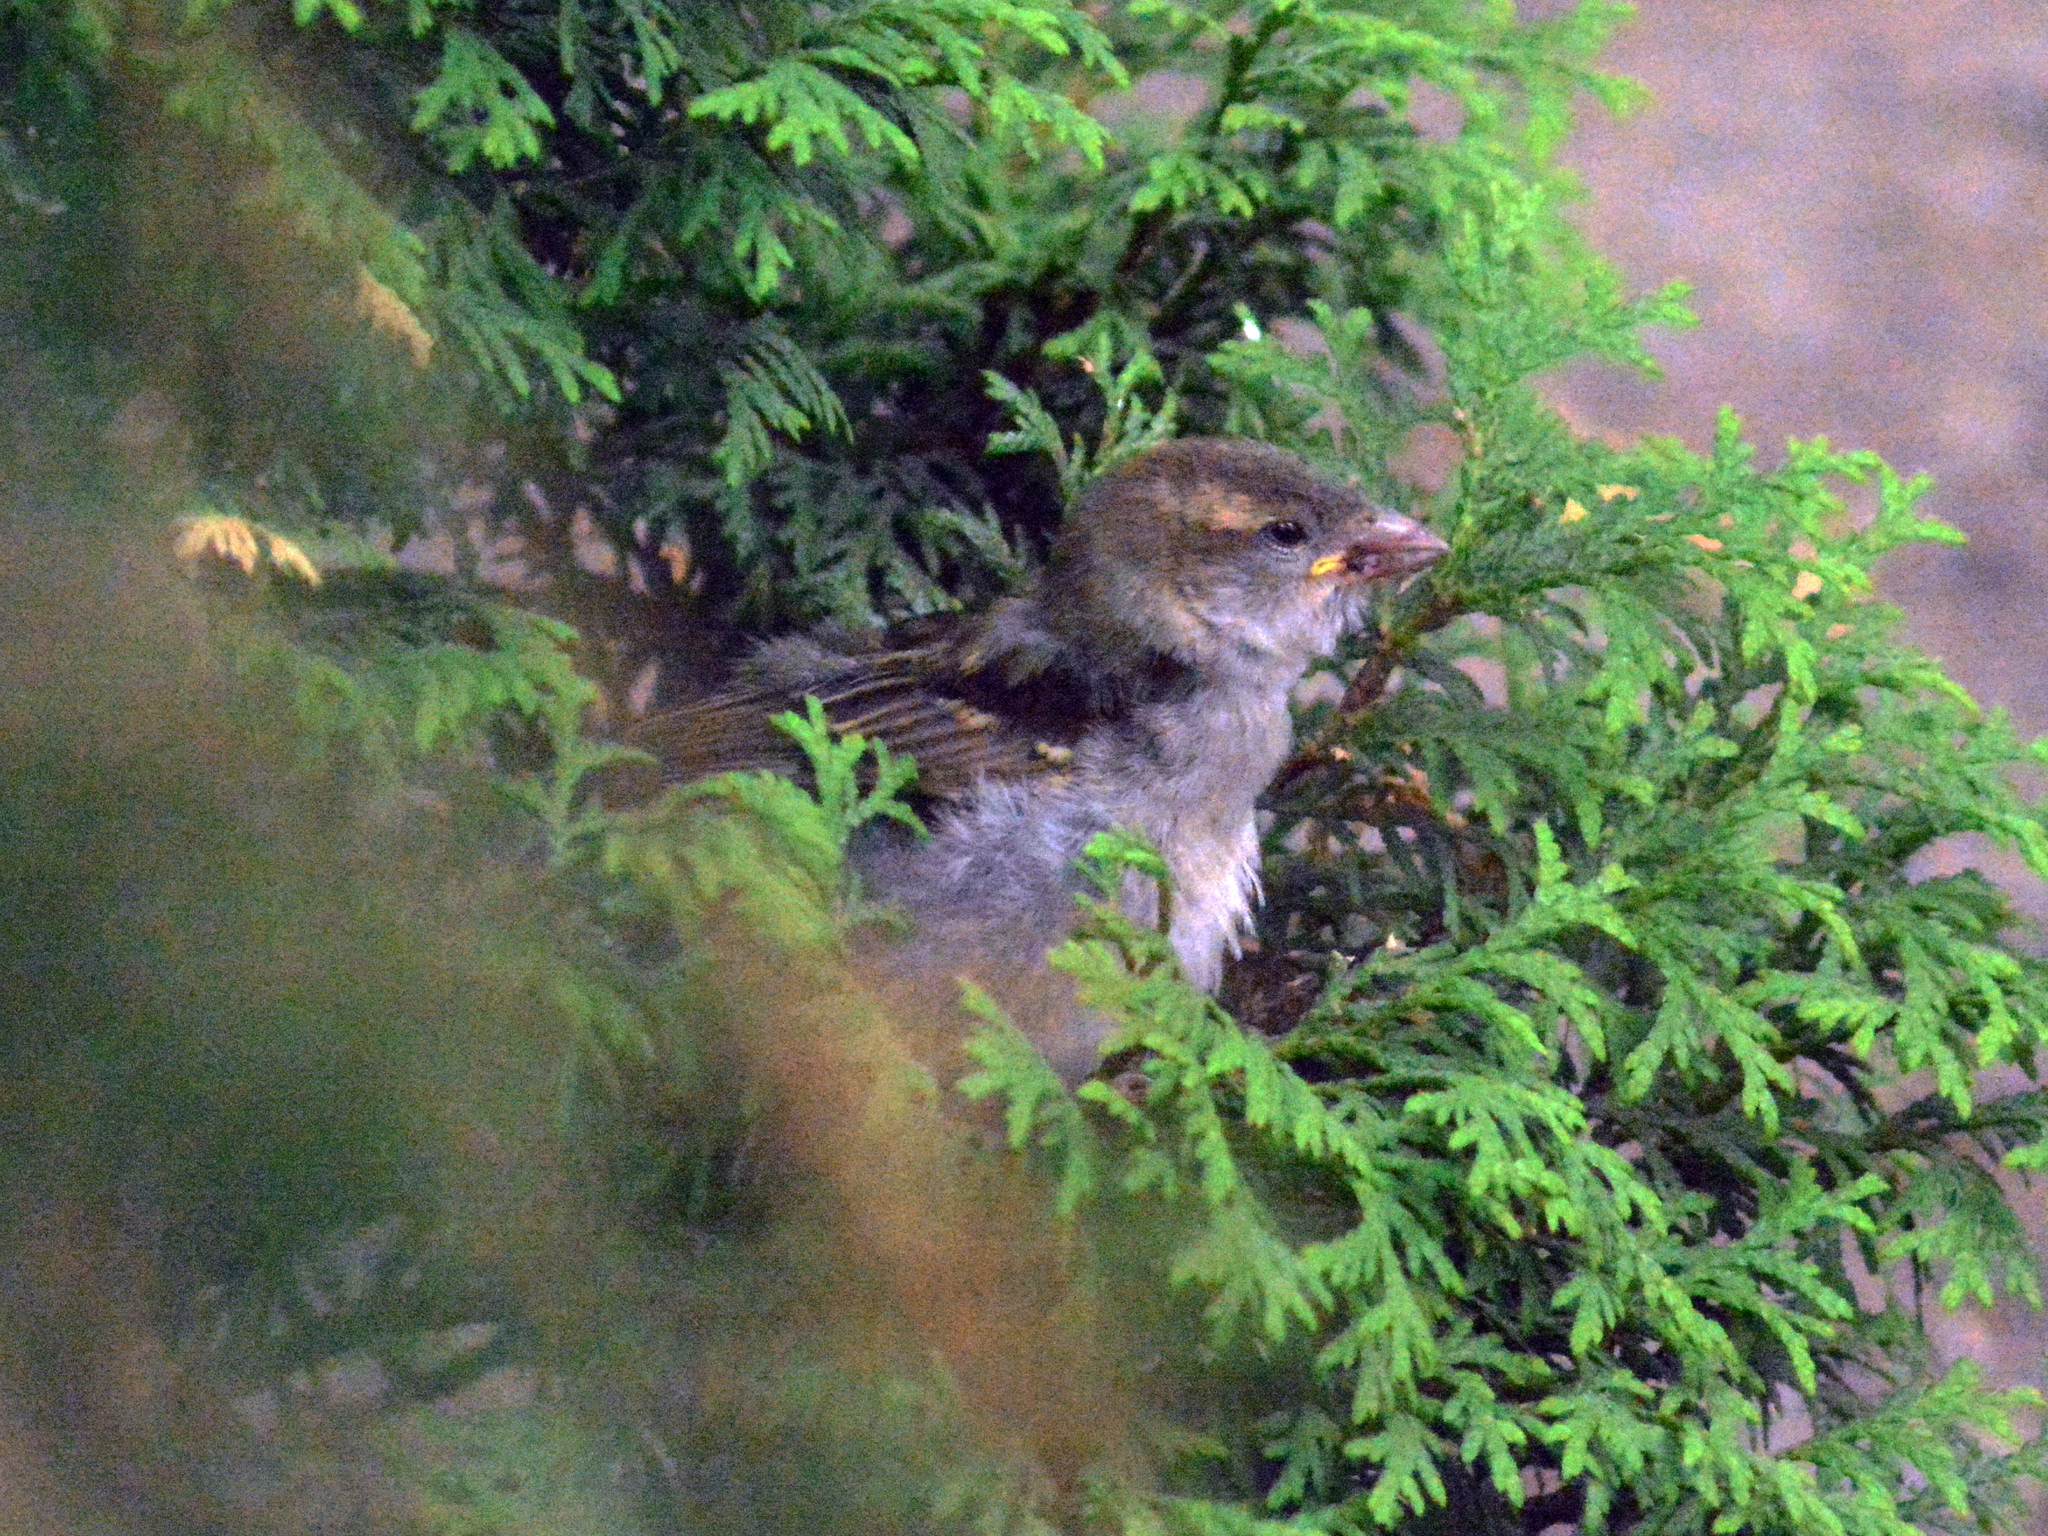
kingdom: Animalia
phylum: Chordata
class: Aves
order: Passeriformes
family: Passeridae
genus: Passer
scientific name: Passer domesticus
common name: House sparrow
